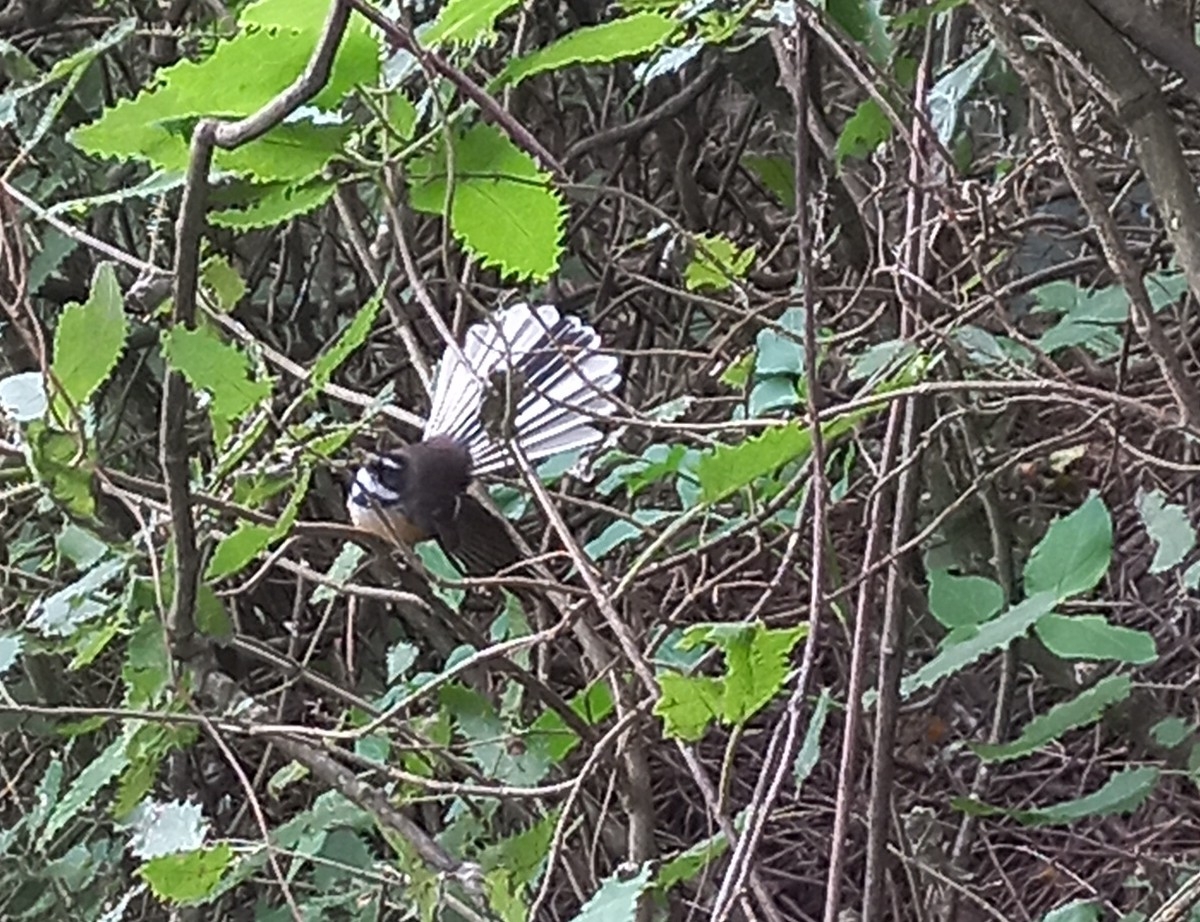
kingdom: Animalia
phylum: Chordata
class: Aves
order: Passeriformes
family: Rhipiduridae
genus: Rhipidura
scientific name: Rhipidura fuliginosa
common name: New zealand fantail
